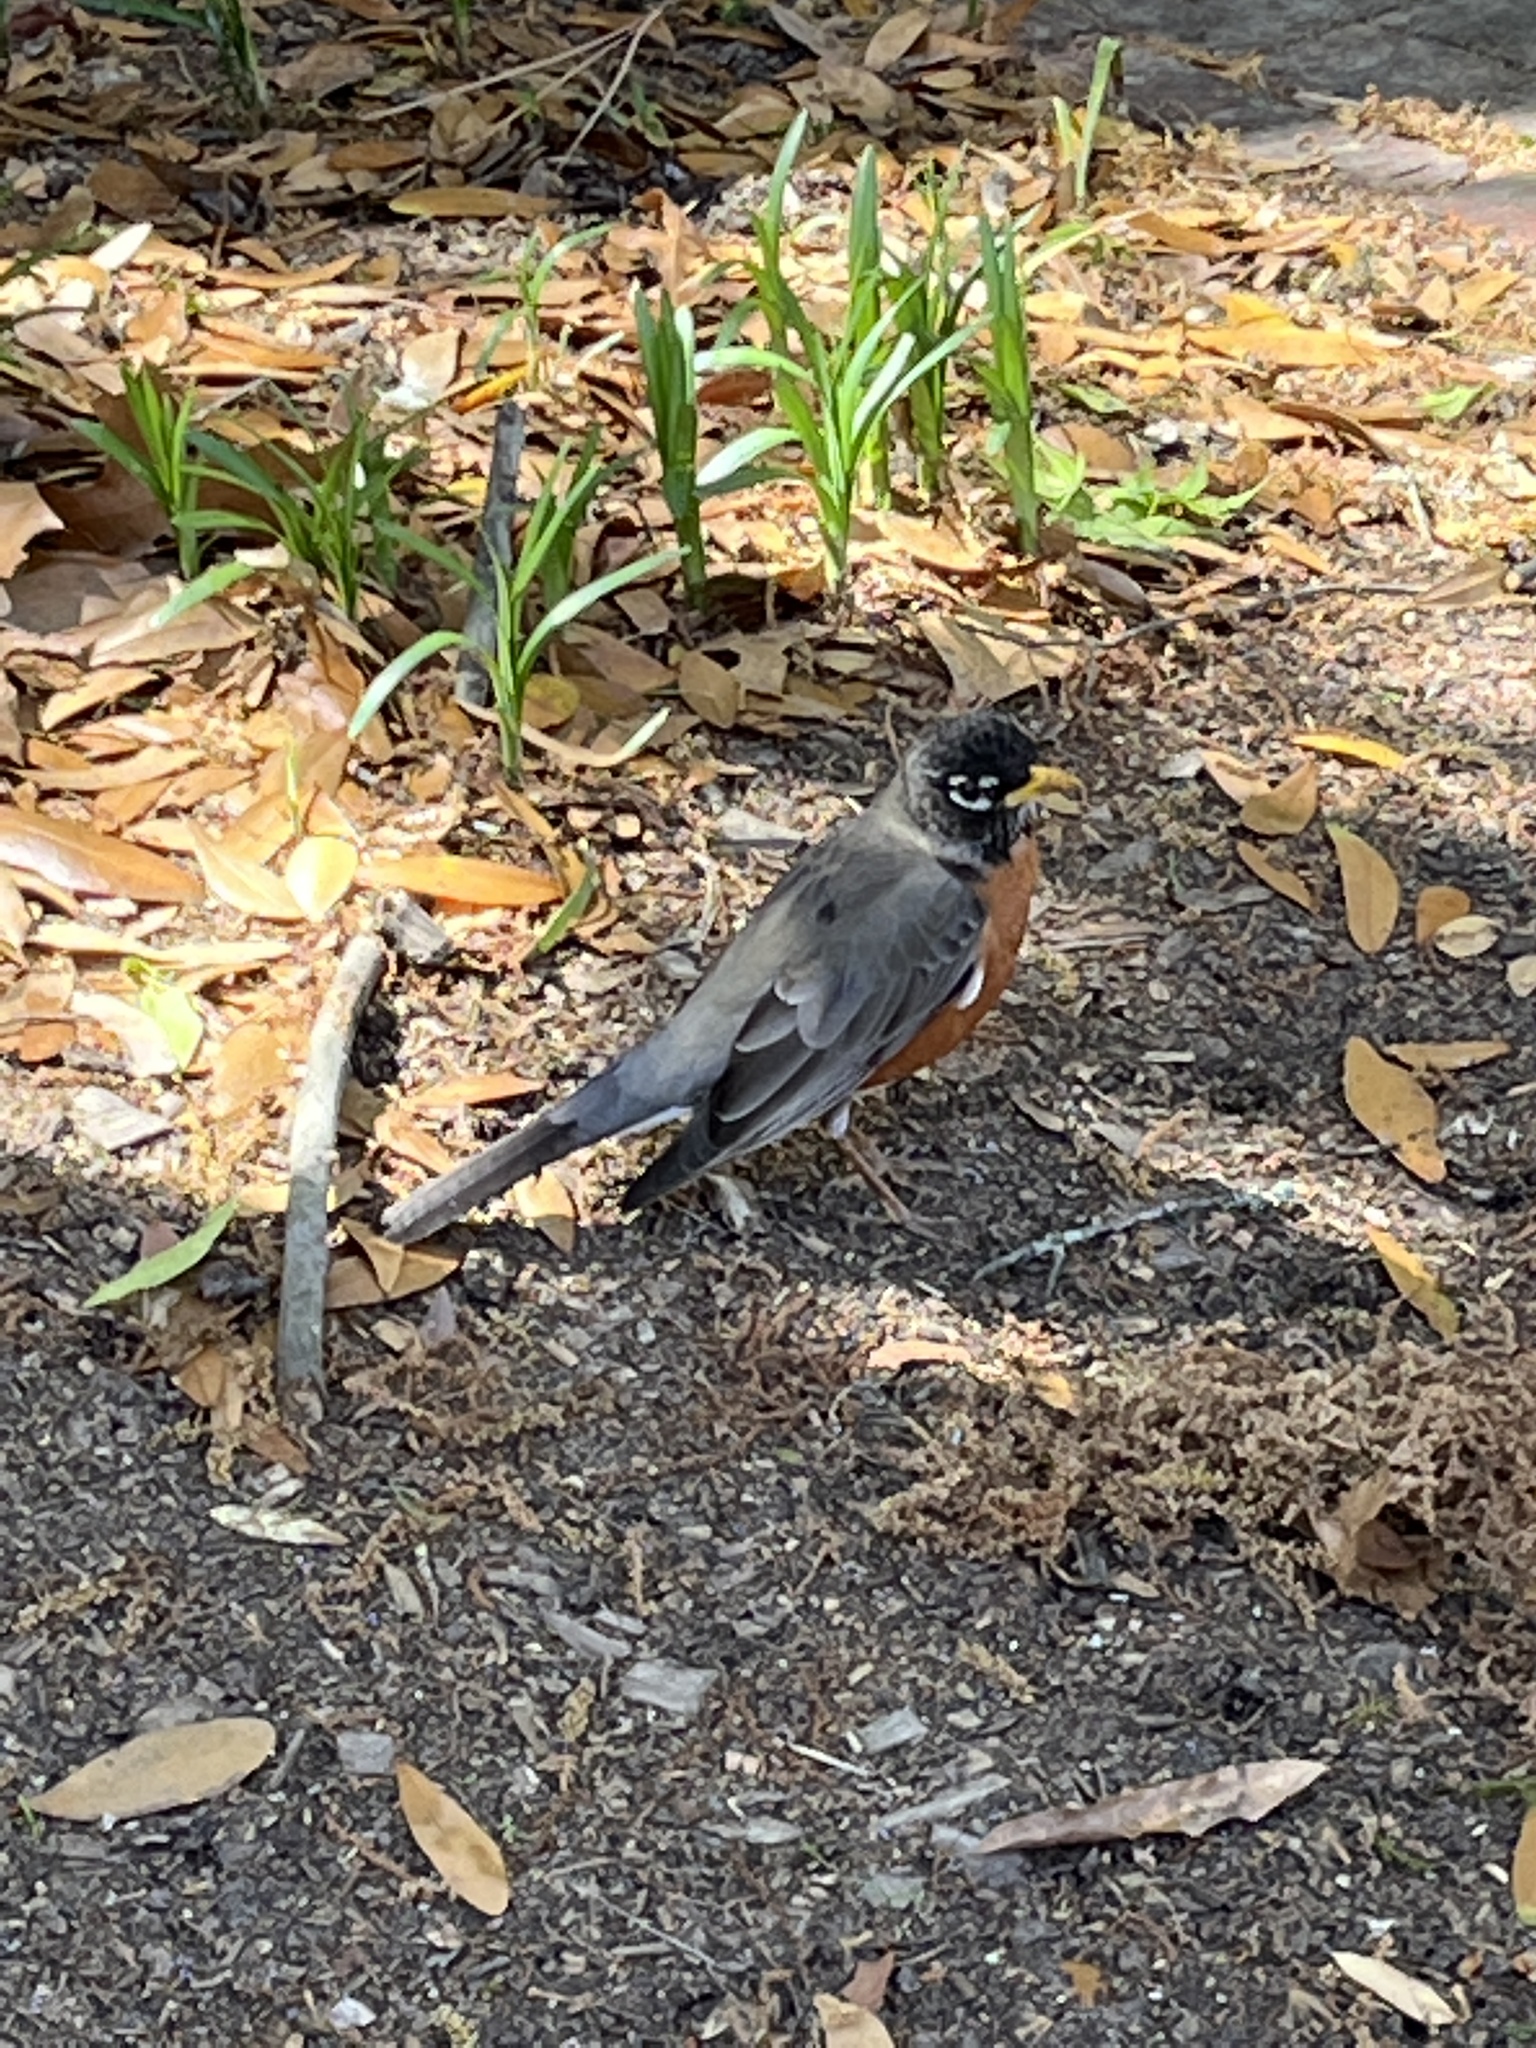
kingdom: Animalia
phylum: Chordata
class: Aves
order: Passeriformes
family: Turdidae
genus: Turdus
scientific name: Turdus migratorius
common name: American robin
